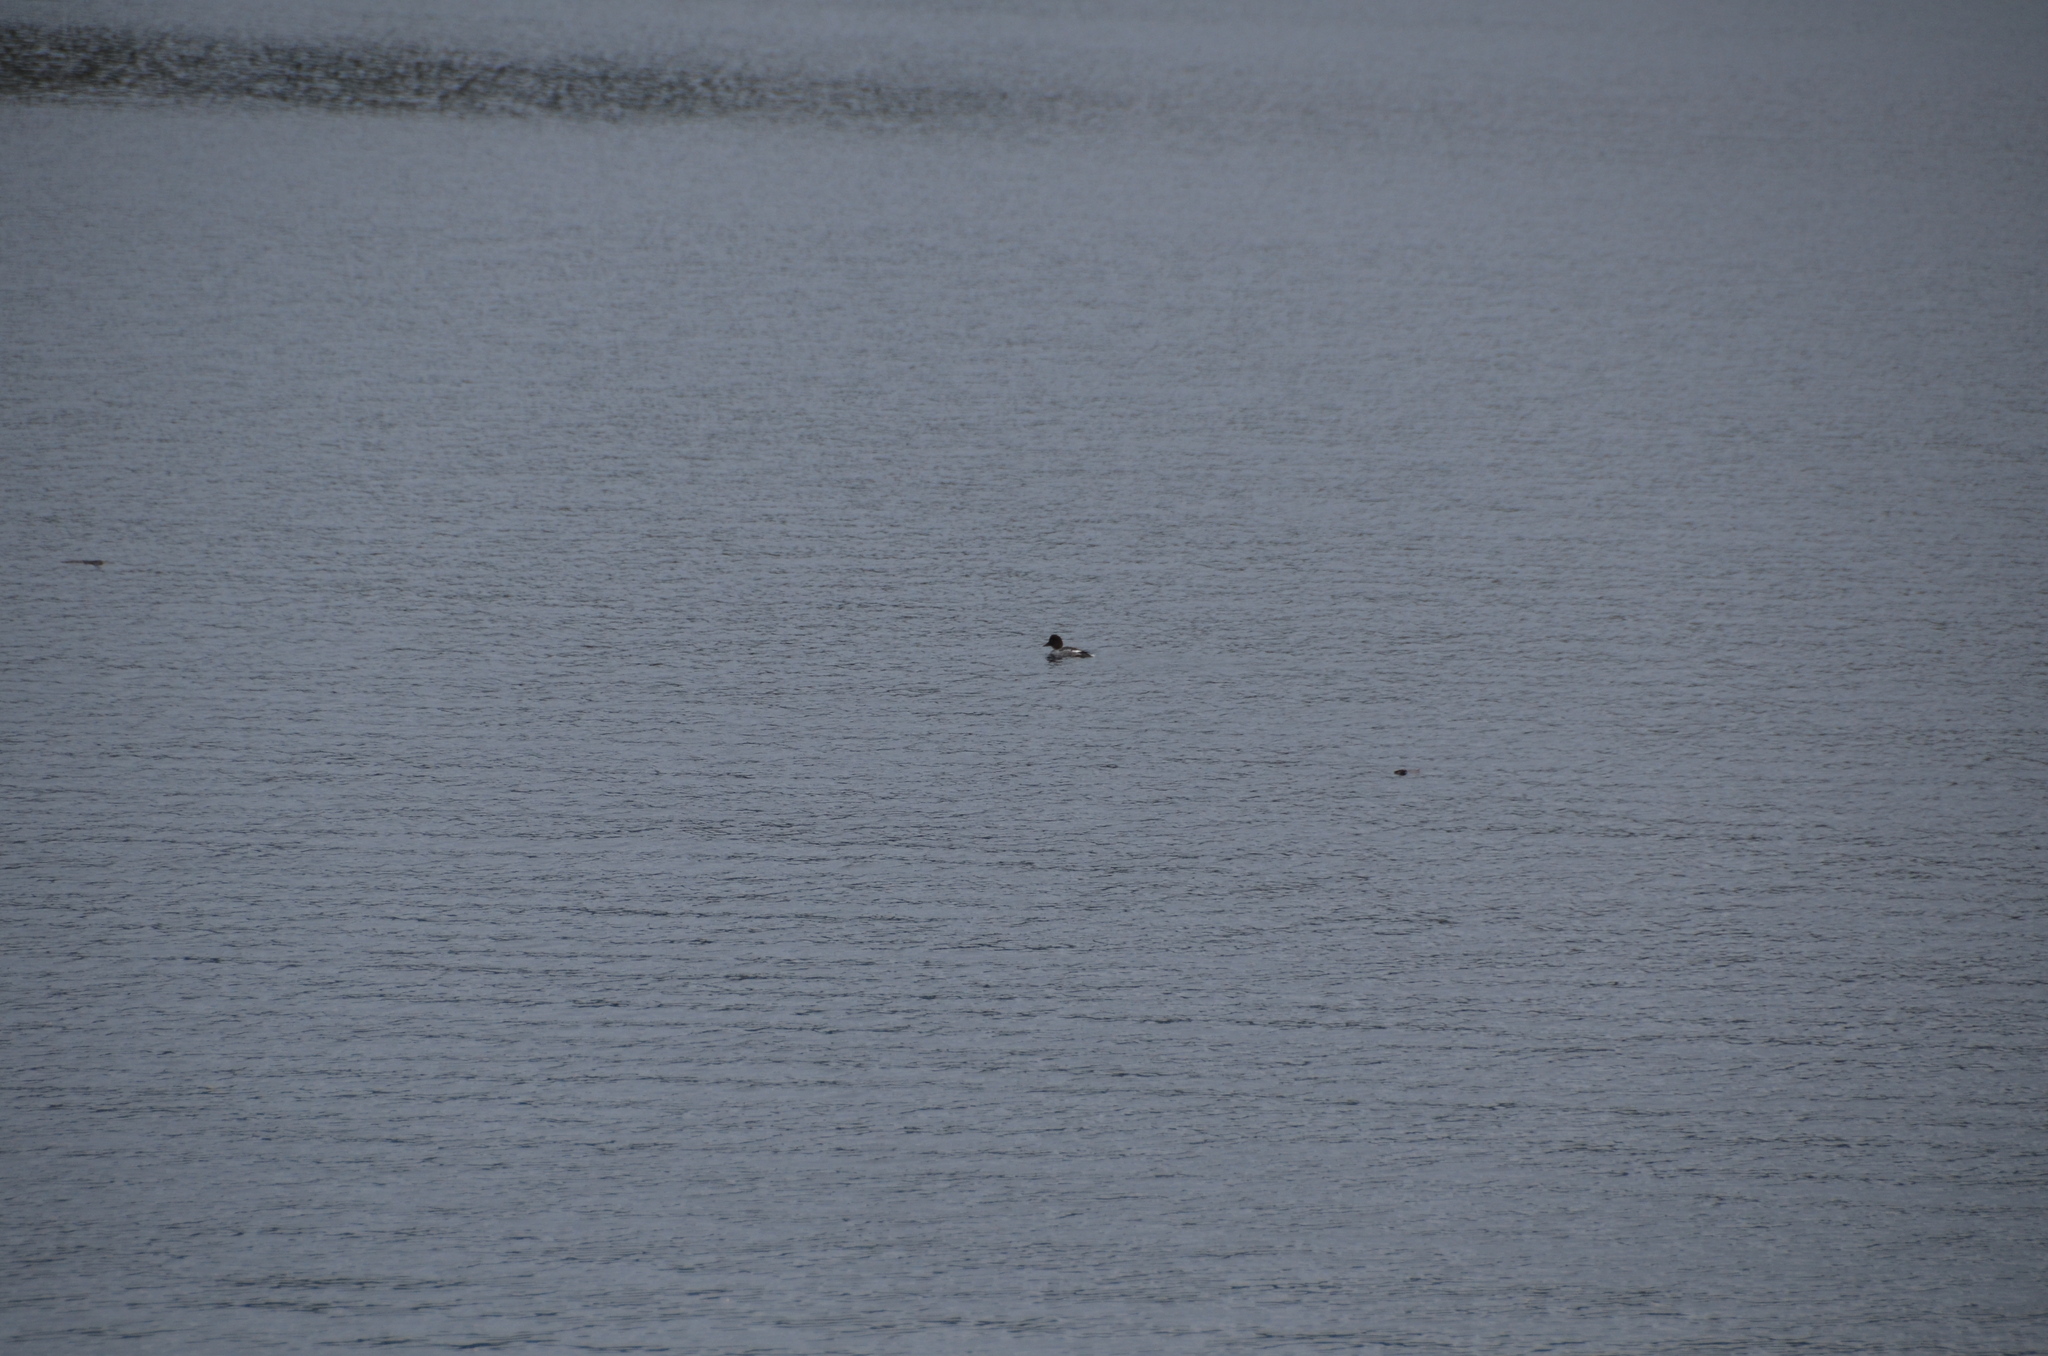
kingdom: Animalia
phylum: Chordata
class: Aves
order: Anseriformes
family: Anatidae
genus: Bucephala
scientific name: Bucephala clangula
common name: Common goldeneye
